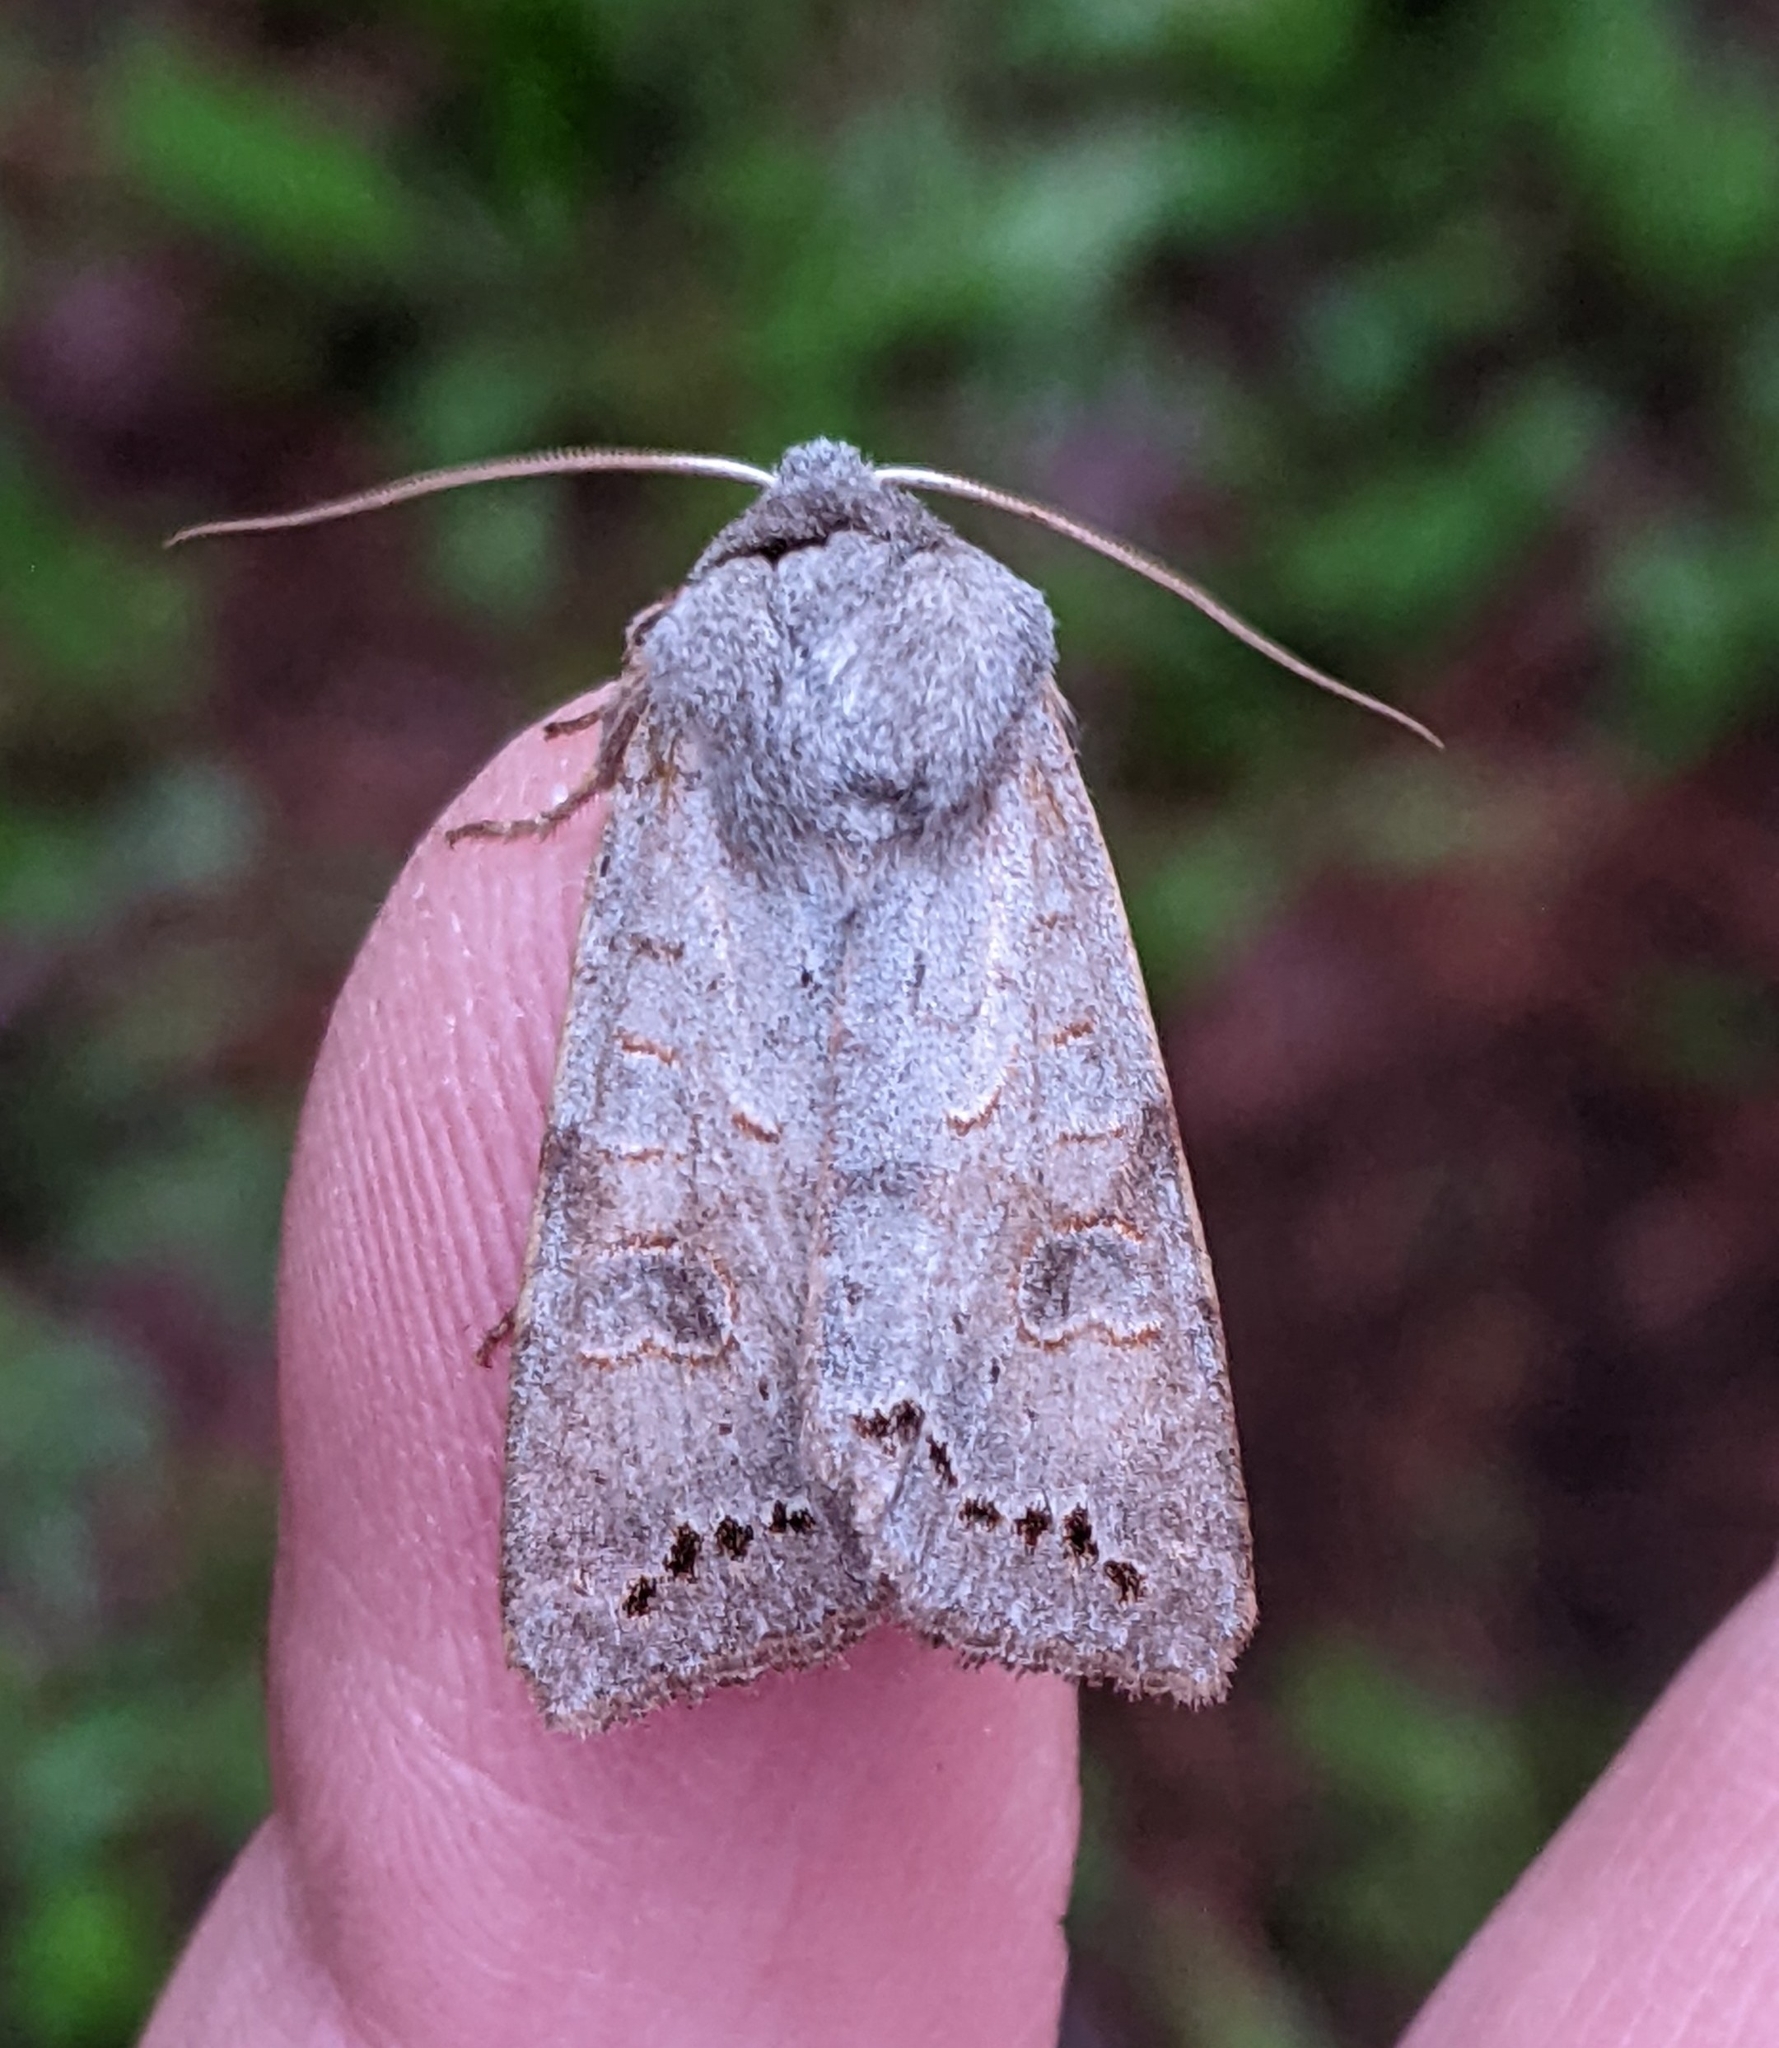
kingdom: Animalia
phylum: Arthropoda
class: Insecta
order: Lepidoptera
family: Noctuidae
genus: Orthosia
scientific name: Orthosia revicta
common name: Rusty whitesided caterpillar
